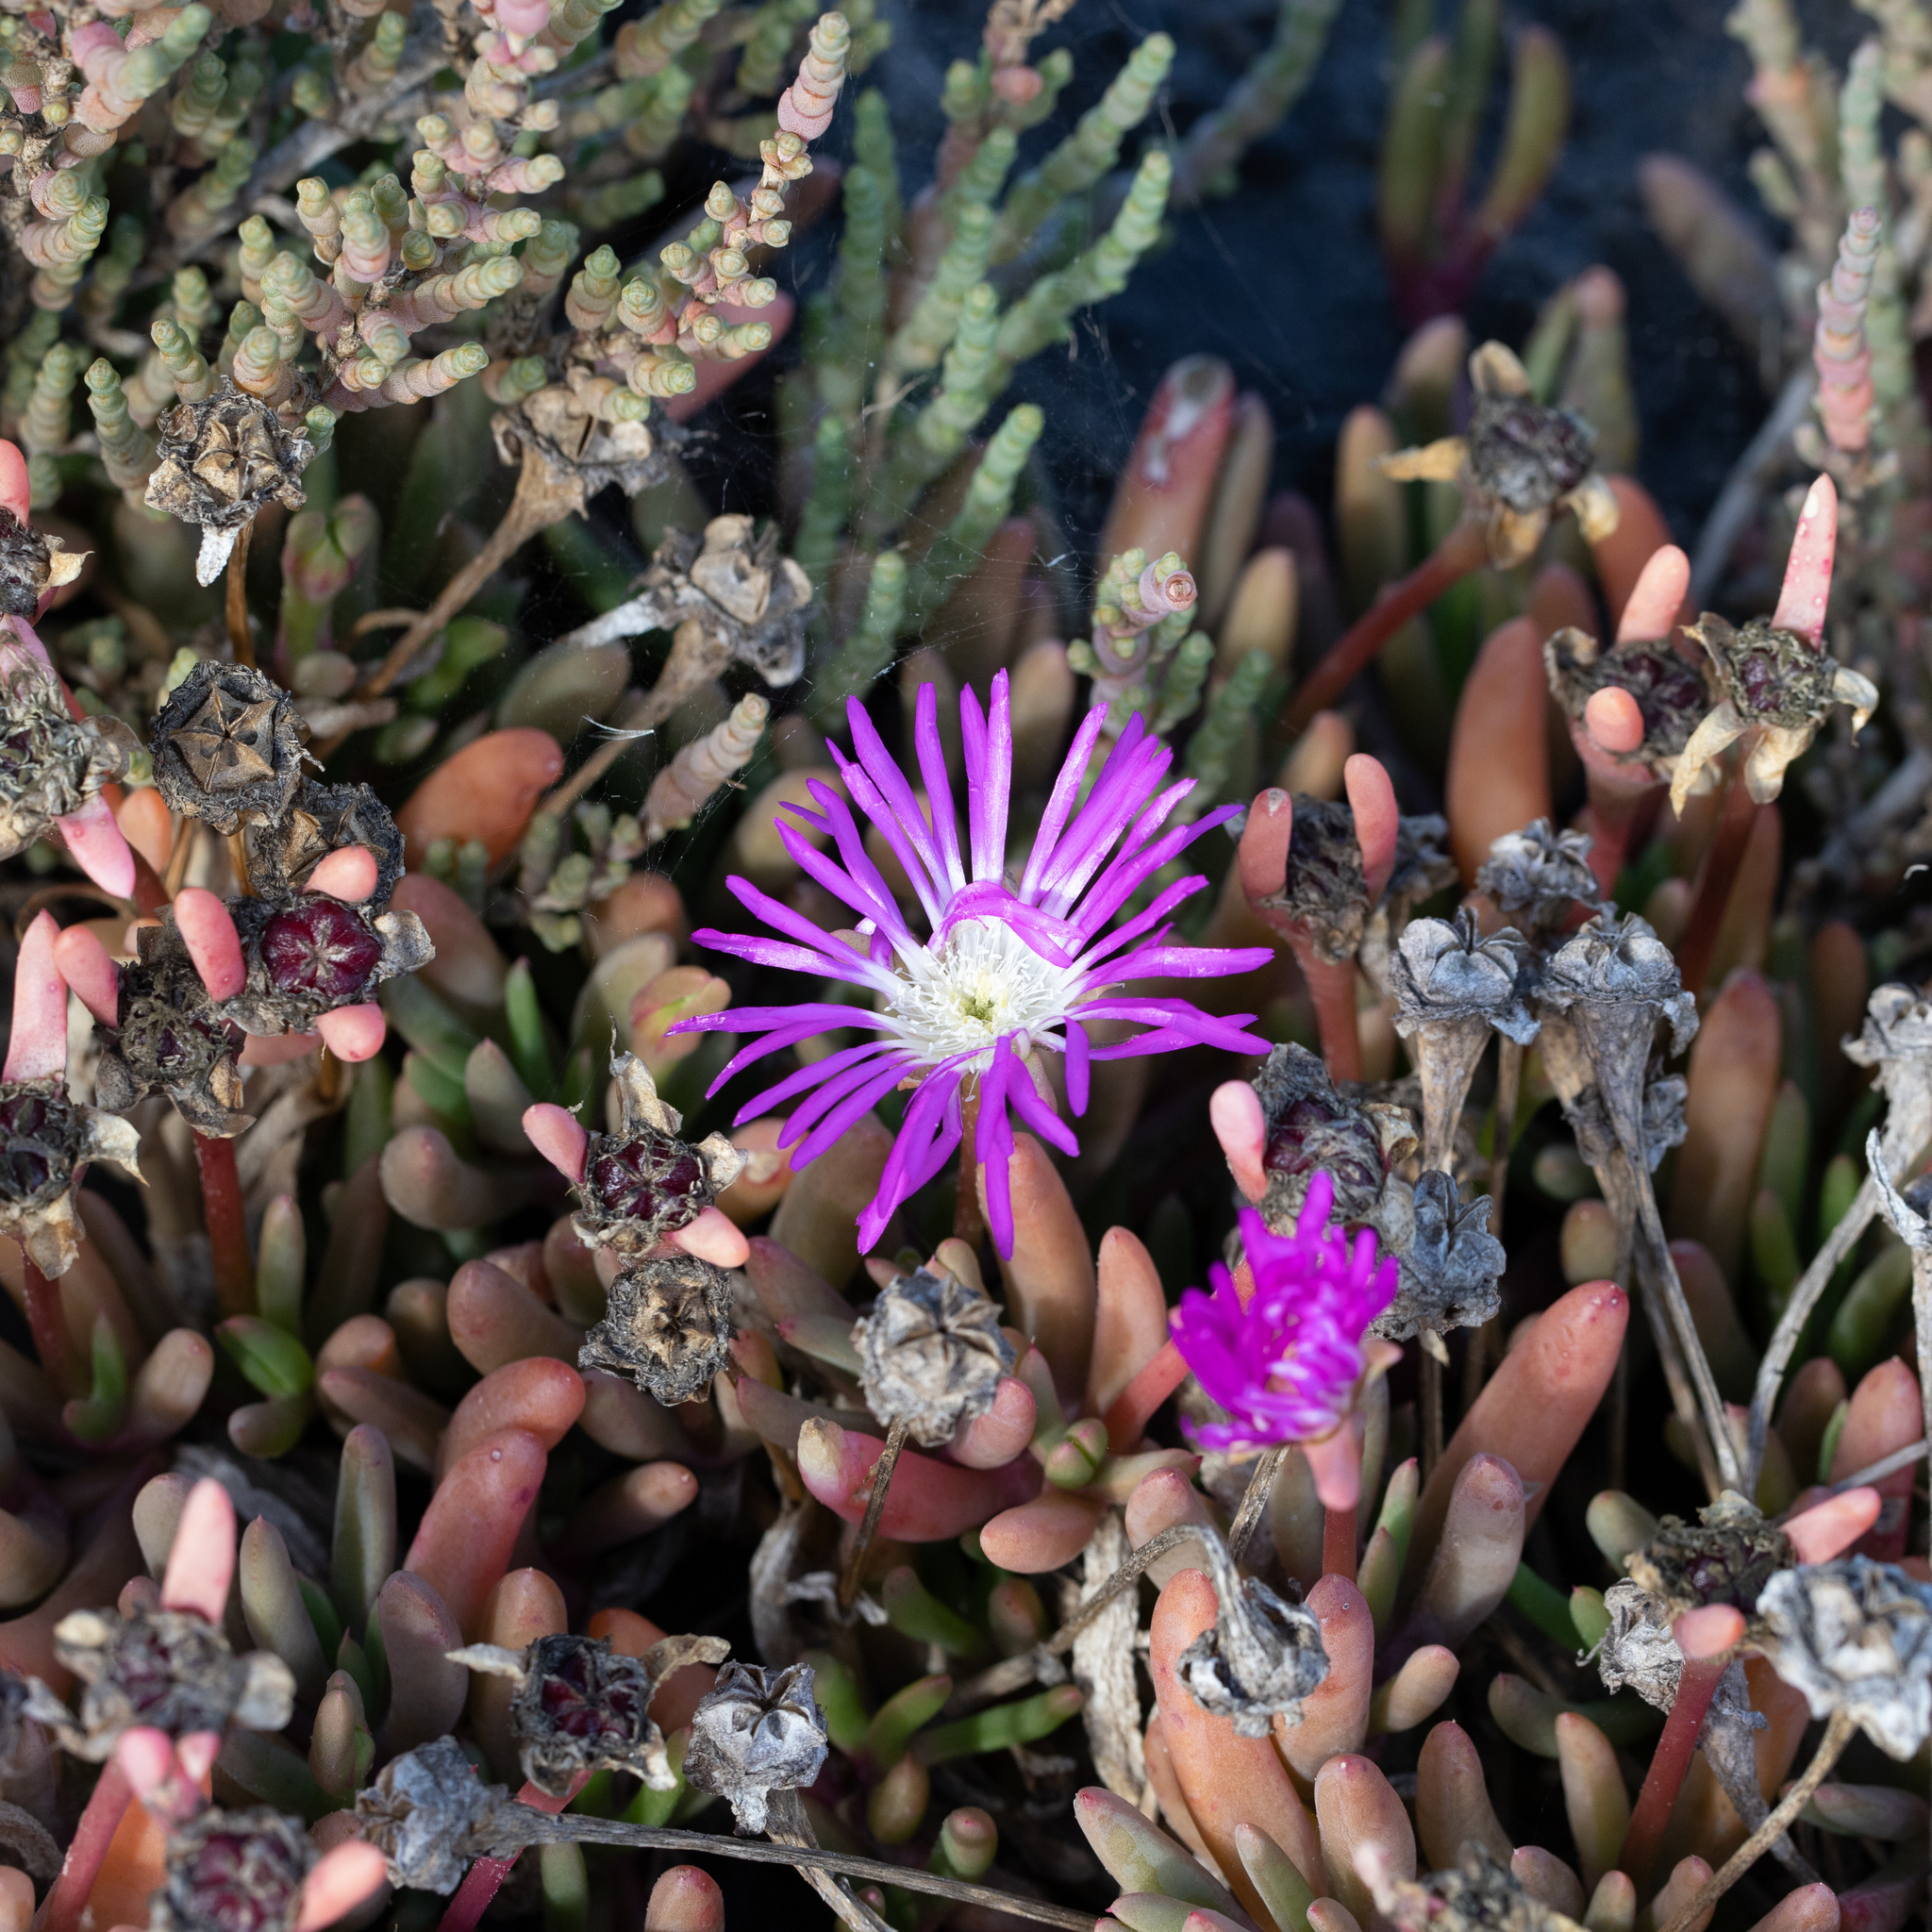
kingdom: Plantae
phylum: Tracheophyta
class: Magnoliopsida
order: Caryophyllales
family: Aizoaceae
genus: Disphyma
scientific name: Disphyma clavellatum
